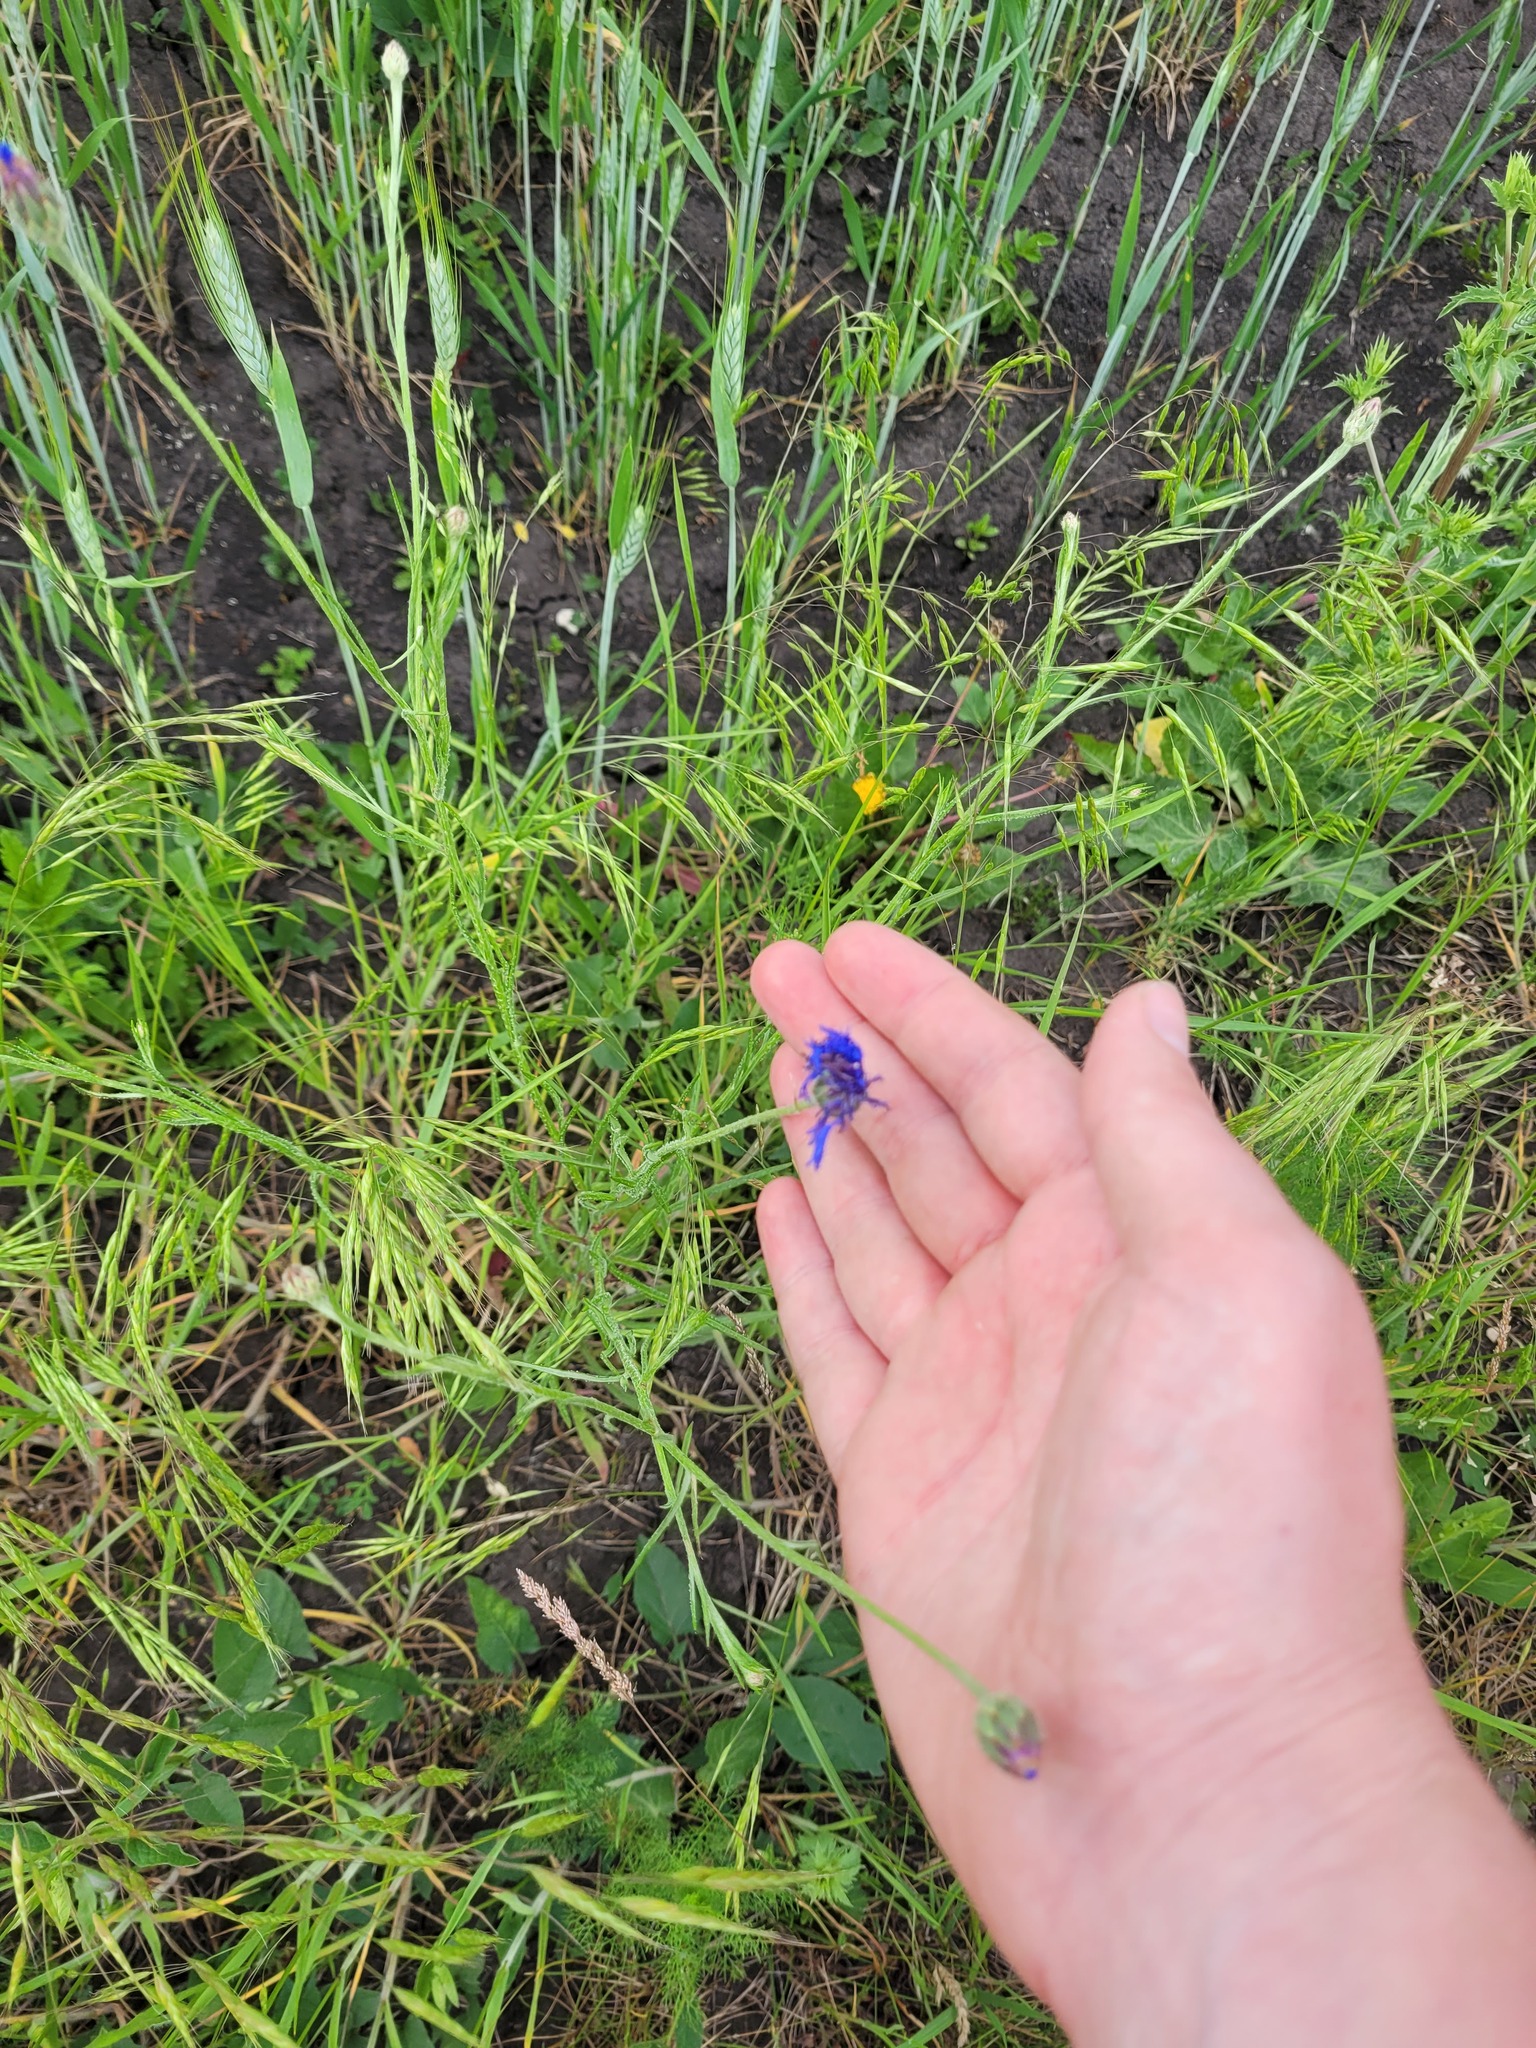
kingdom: Plantae
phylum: Tracheophyta
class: Magnoliopsida
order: Asterales
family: Asteraceae
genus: Centaurea
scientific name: Centaurea cyanus
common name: Cornflower
